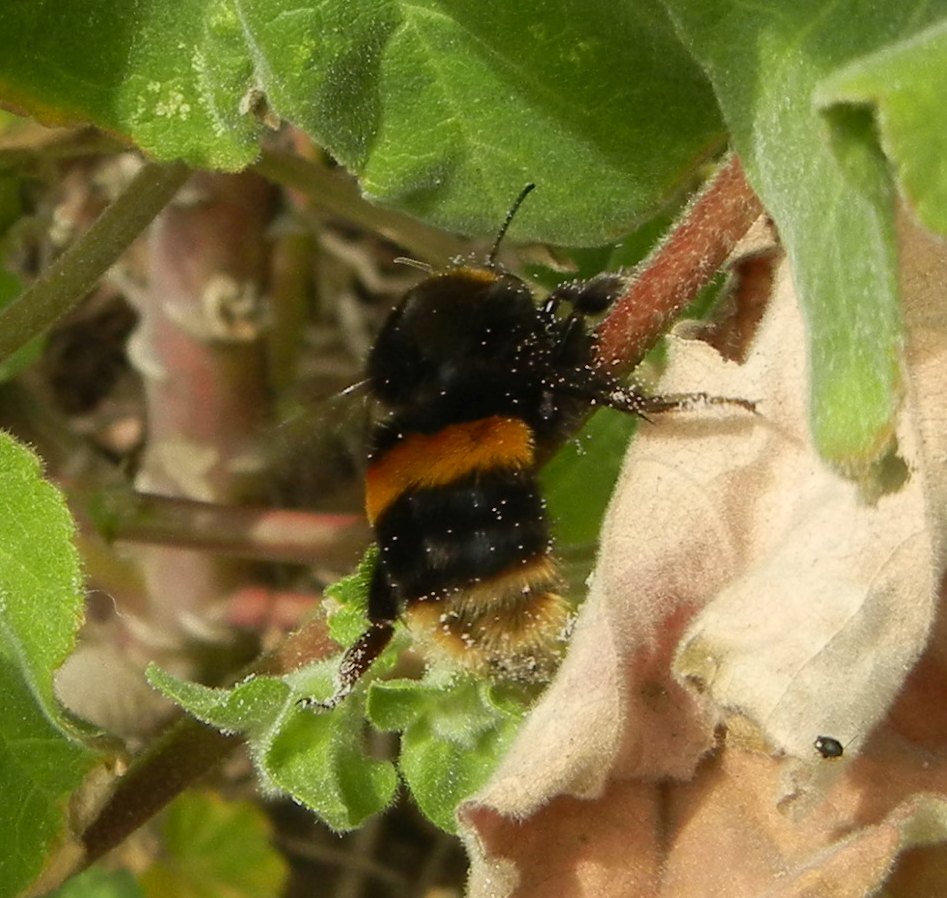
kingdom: Animalia
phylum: Arthropoda
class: Insecta
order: Hymenoptera
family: Apidae
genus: Bombus
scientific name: Bombus terrestris
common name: Buff-tailed bumblebee
